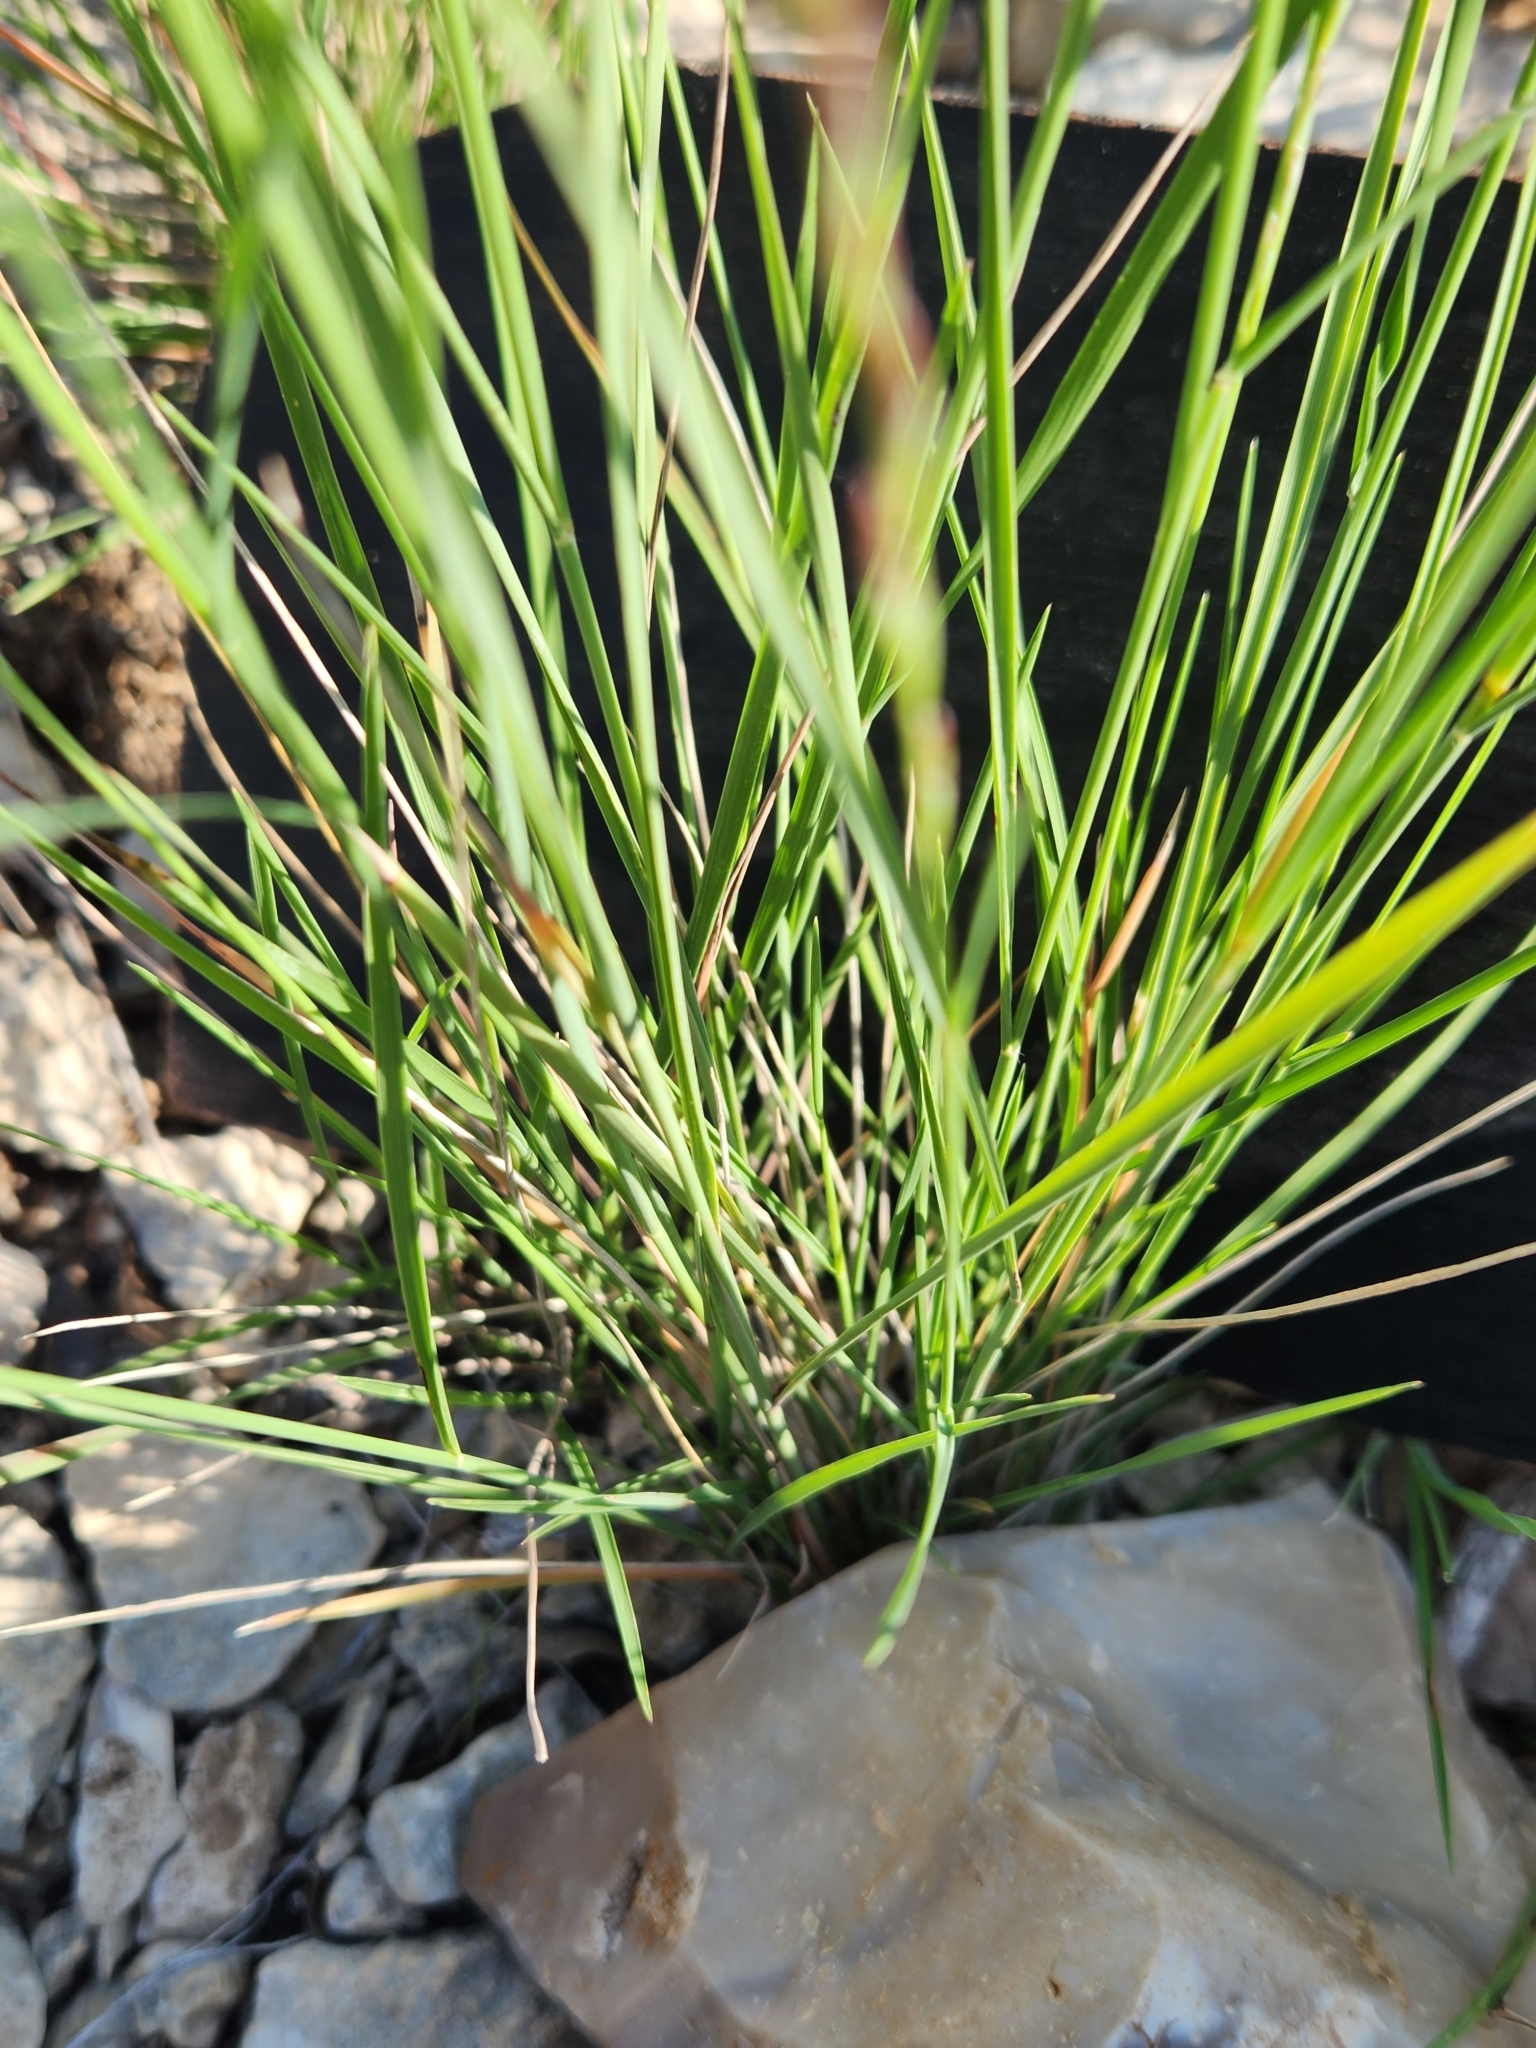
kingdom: Plantae
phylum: Tracheophyta
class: Liliopsida
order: Poales
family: Poaceae
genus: Tridentopsis
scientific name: Tridentopsis mutica
